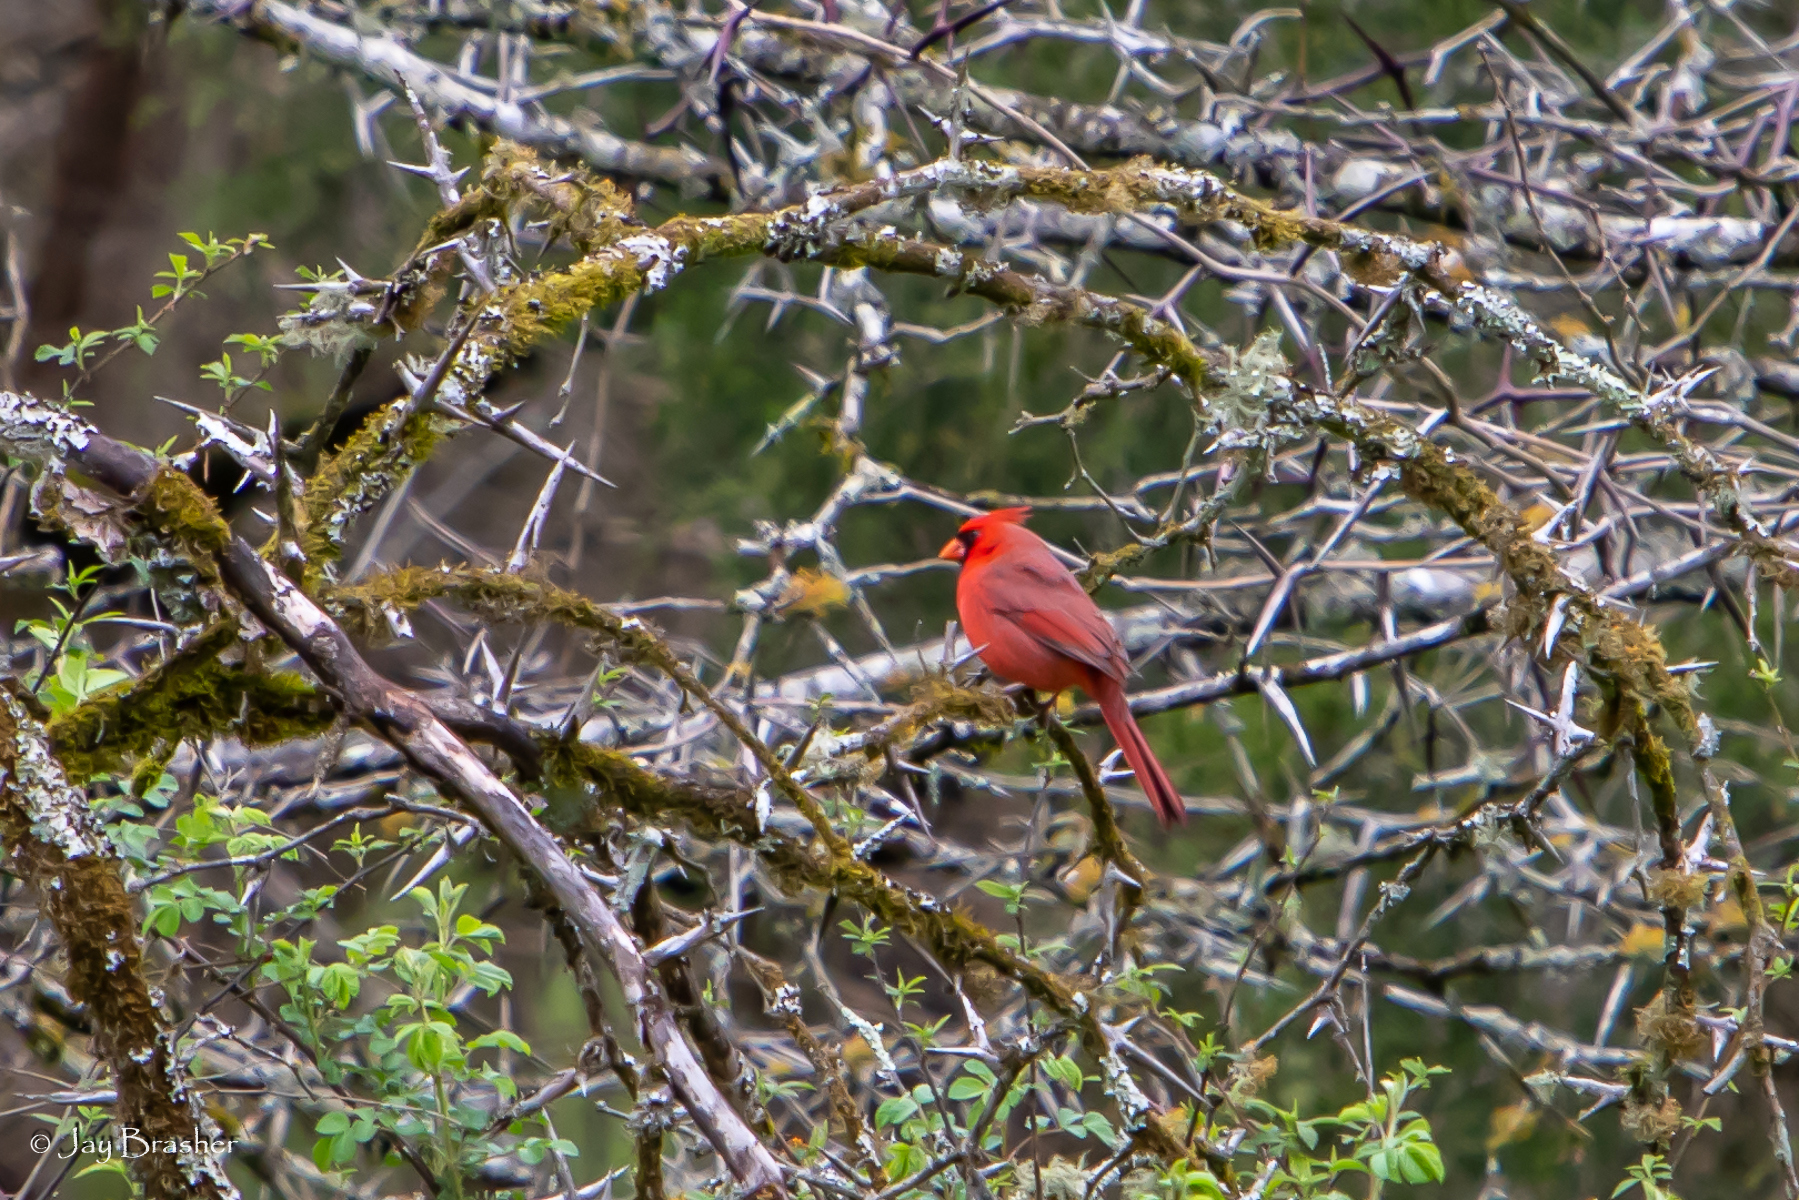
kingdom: Animalia
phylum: Chordata
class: Aves
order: Passeriformes
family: Cardinalidae
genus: Cardinalis
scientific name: Cardinalis cardinalis
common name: Northern cardinal
